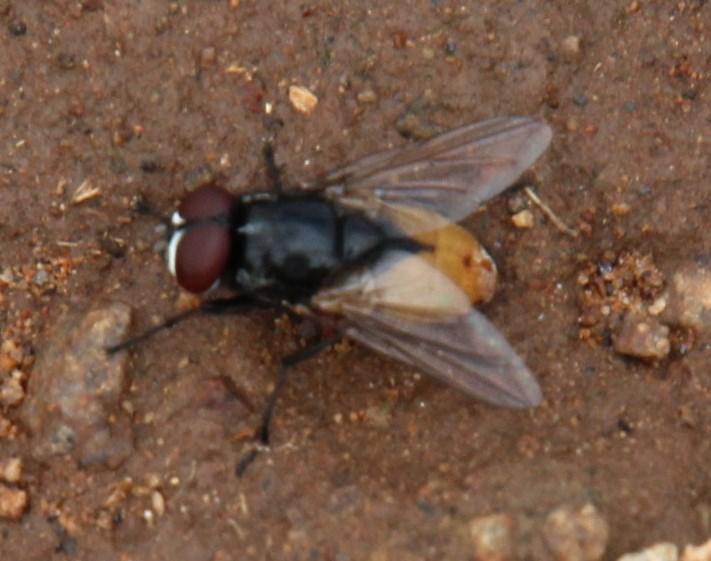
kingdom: Animalia
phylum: Arthropoda
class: Insecta
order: Diptera
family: Muscidae
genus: Musca
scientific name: Musca domestica
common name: House fly
